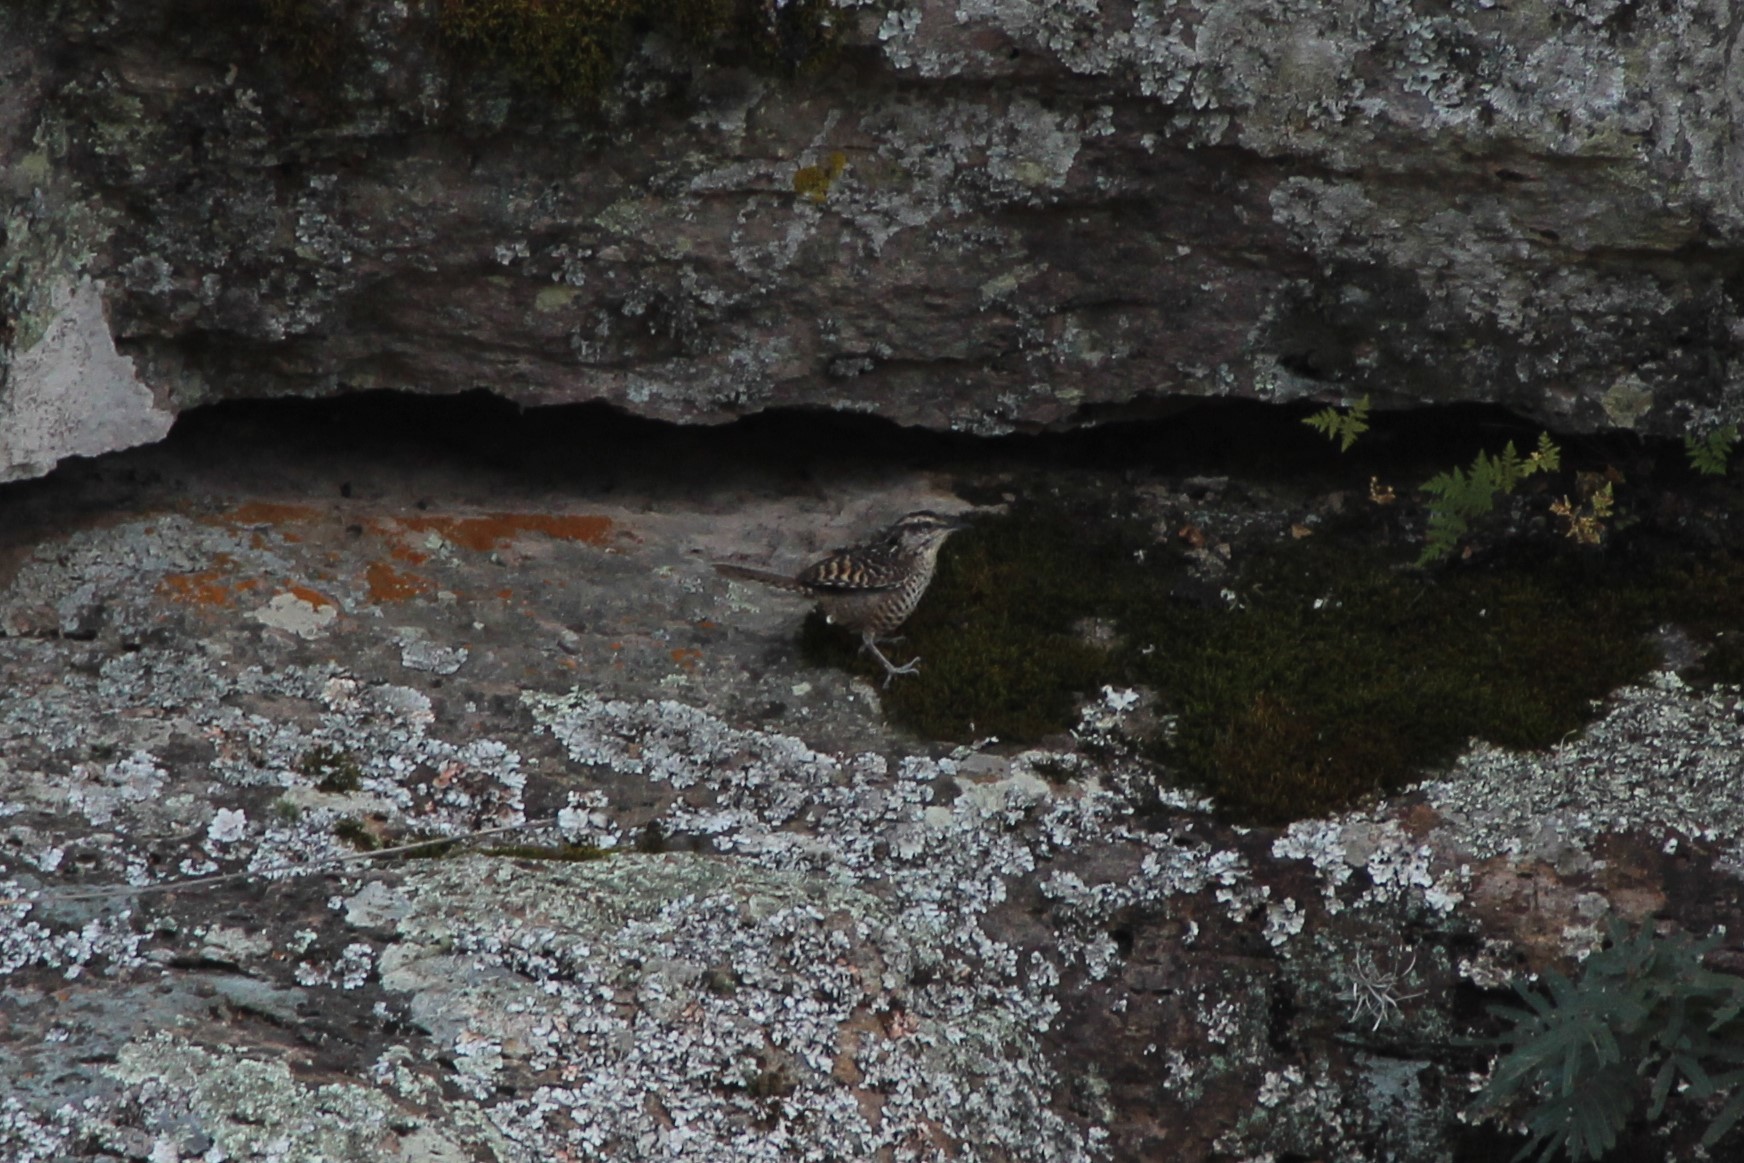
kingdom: Animalia
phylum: Chordata
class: Aves
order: Passeriformes
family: Troglodytidae
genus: Campylorhynchus
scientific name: Campylorhynchus gularis
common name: Spotted wren
